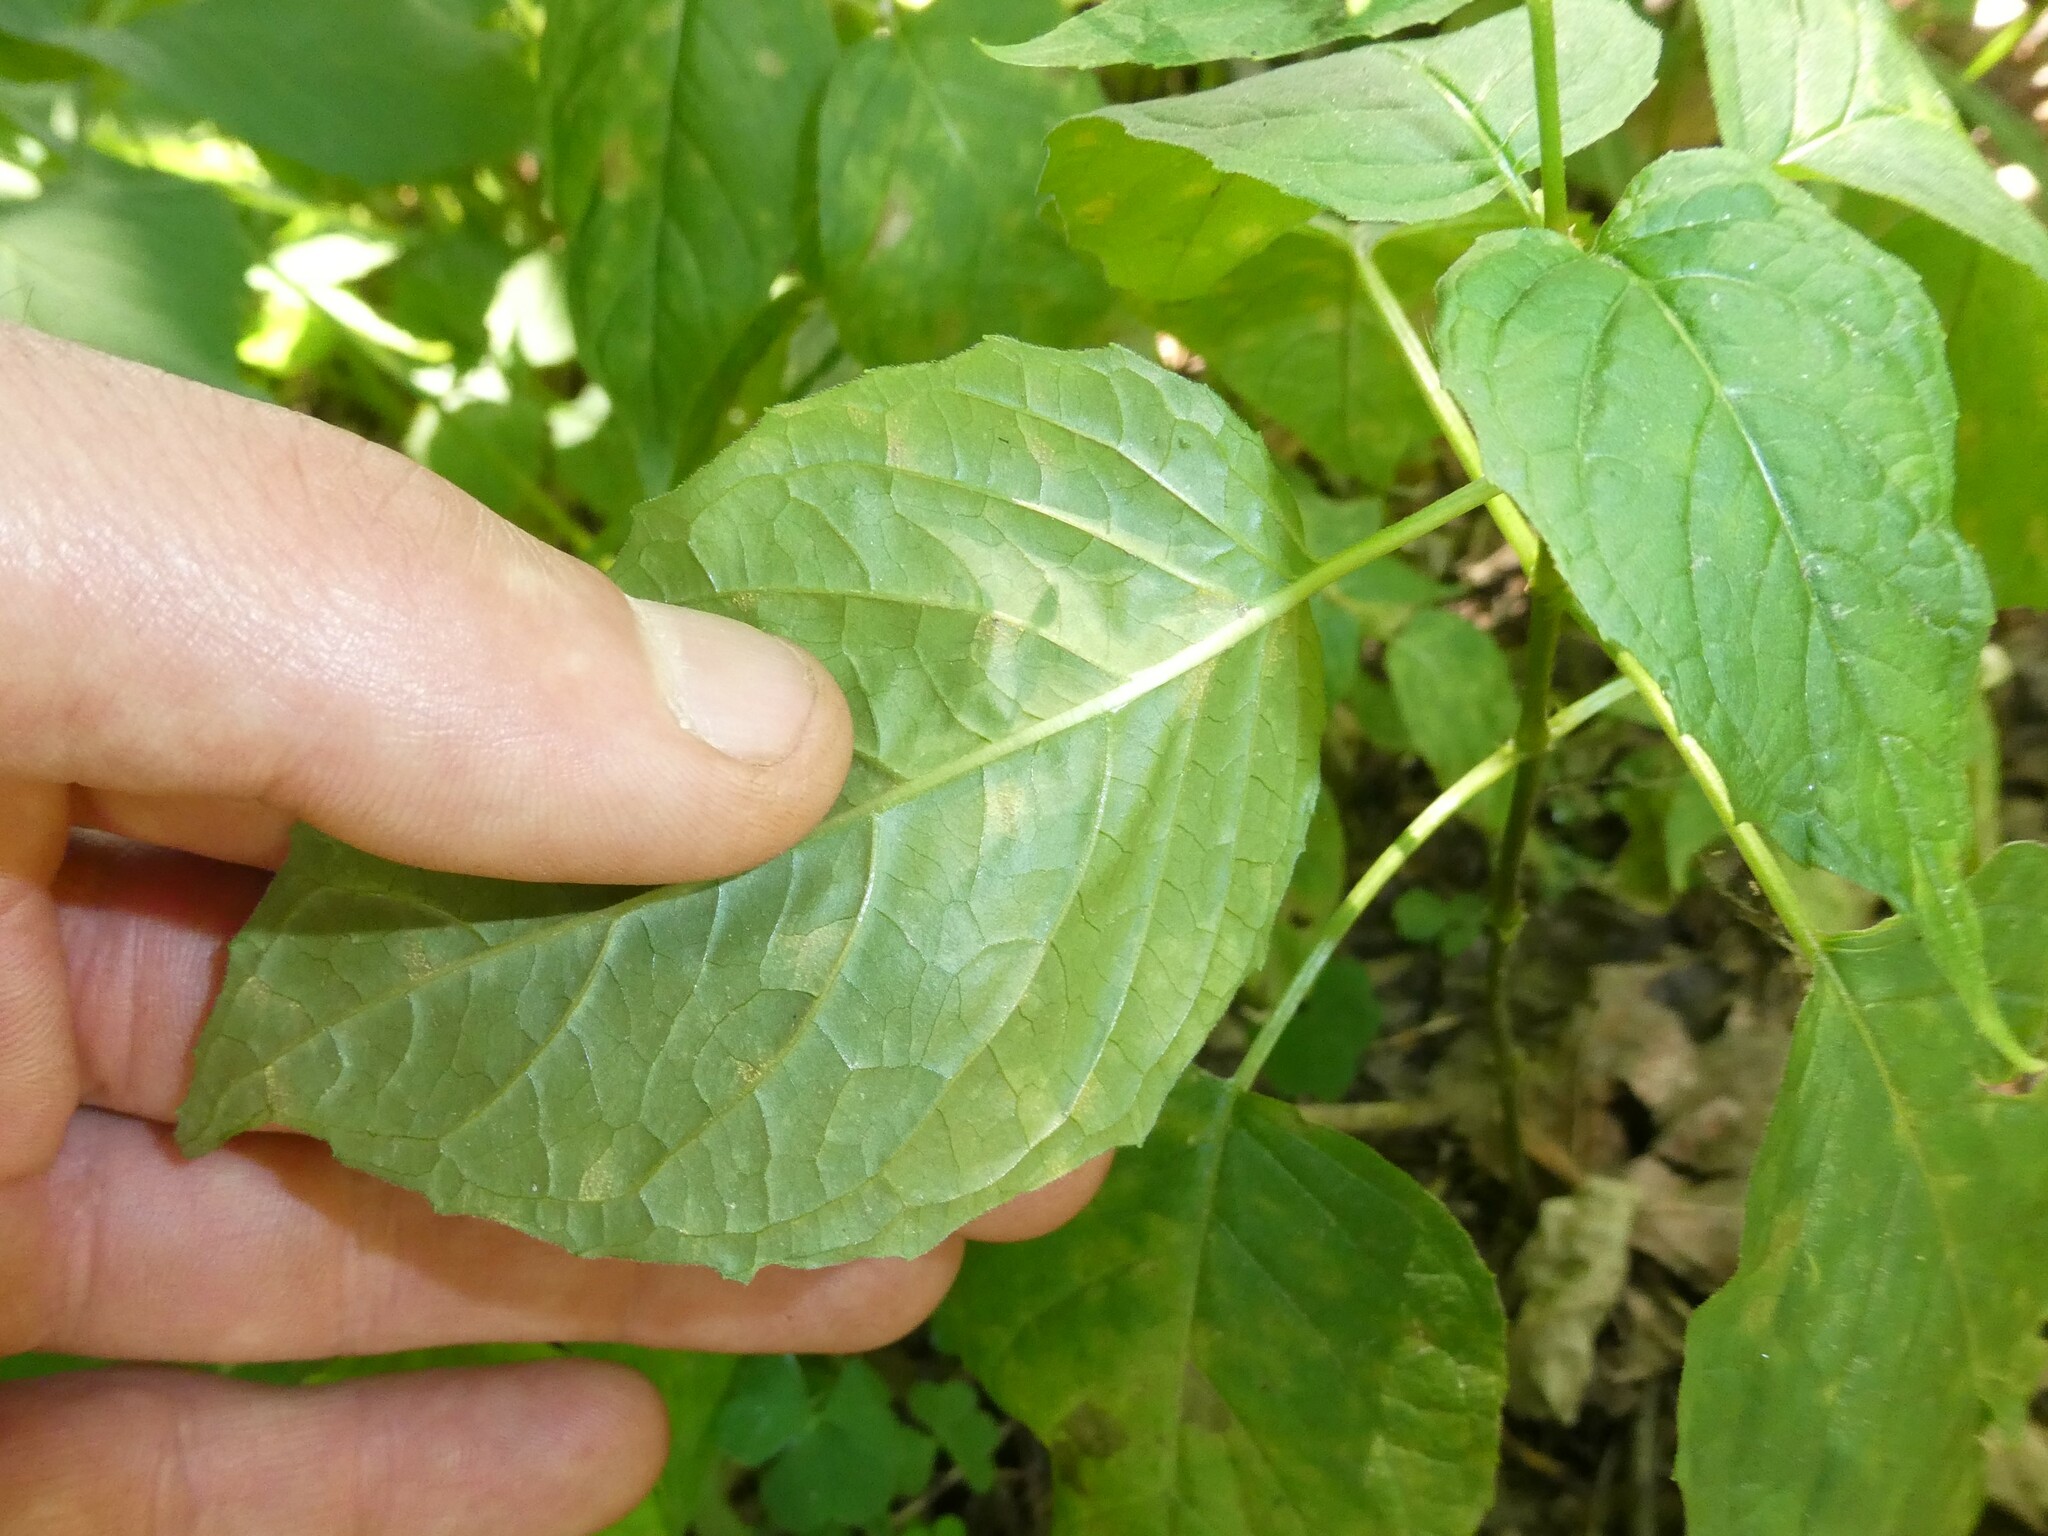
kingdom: Plantae
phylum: Tracheophyta
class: Magnoliopsida
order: Myrtales
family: Onagraceae
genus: Circaea
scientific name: Circaea canadensis
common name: Broad-leaved enchanter's nightshade
